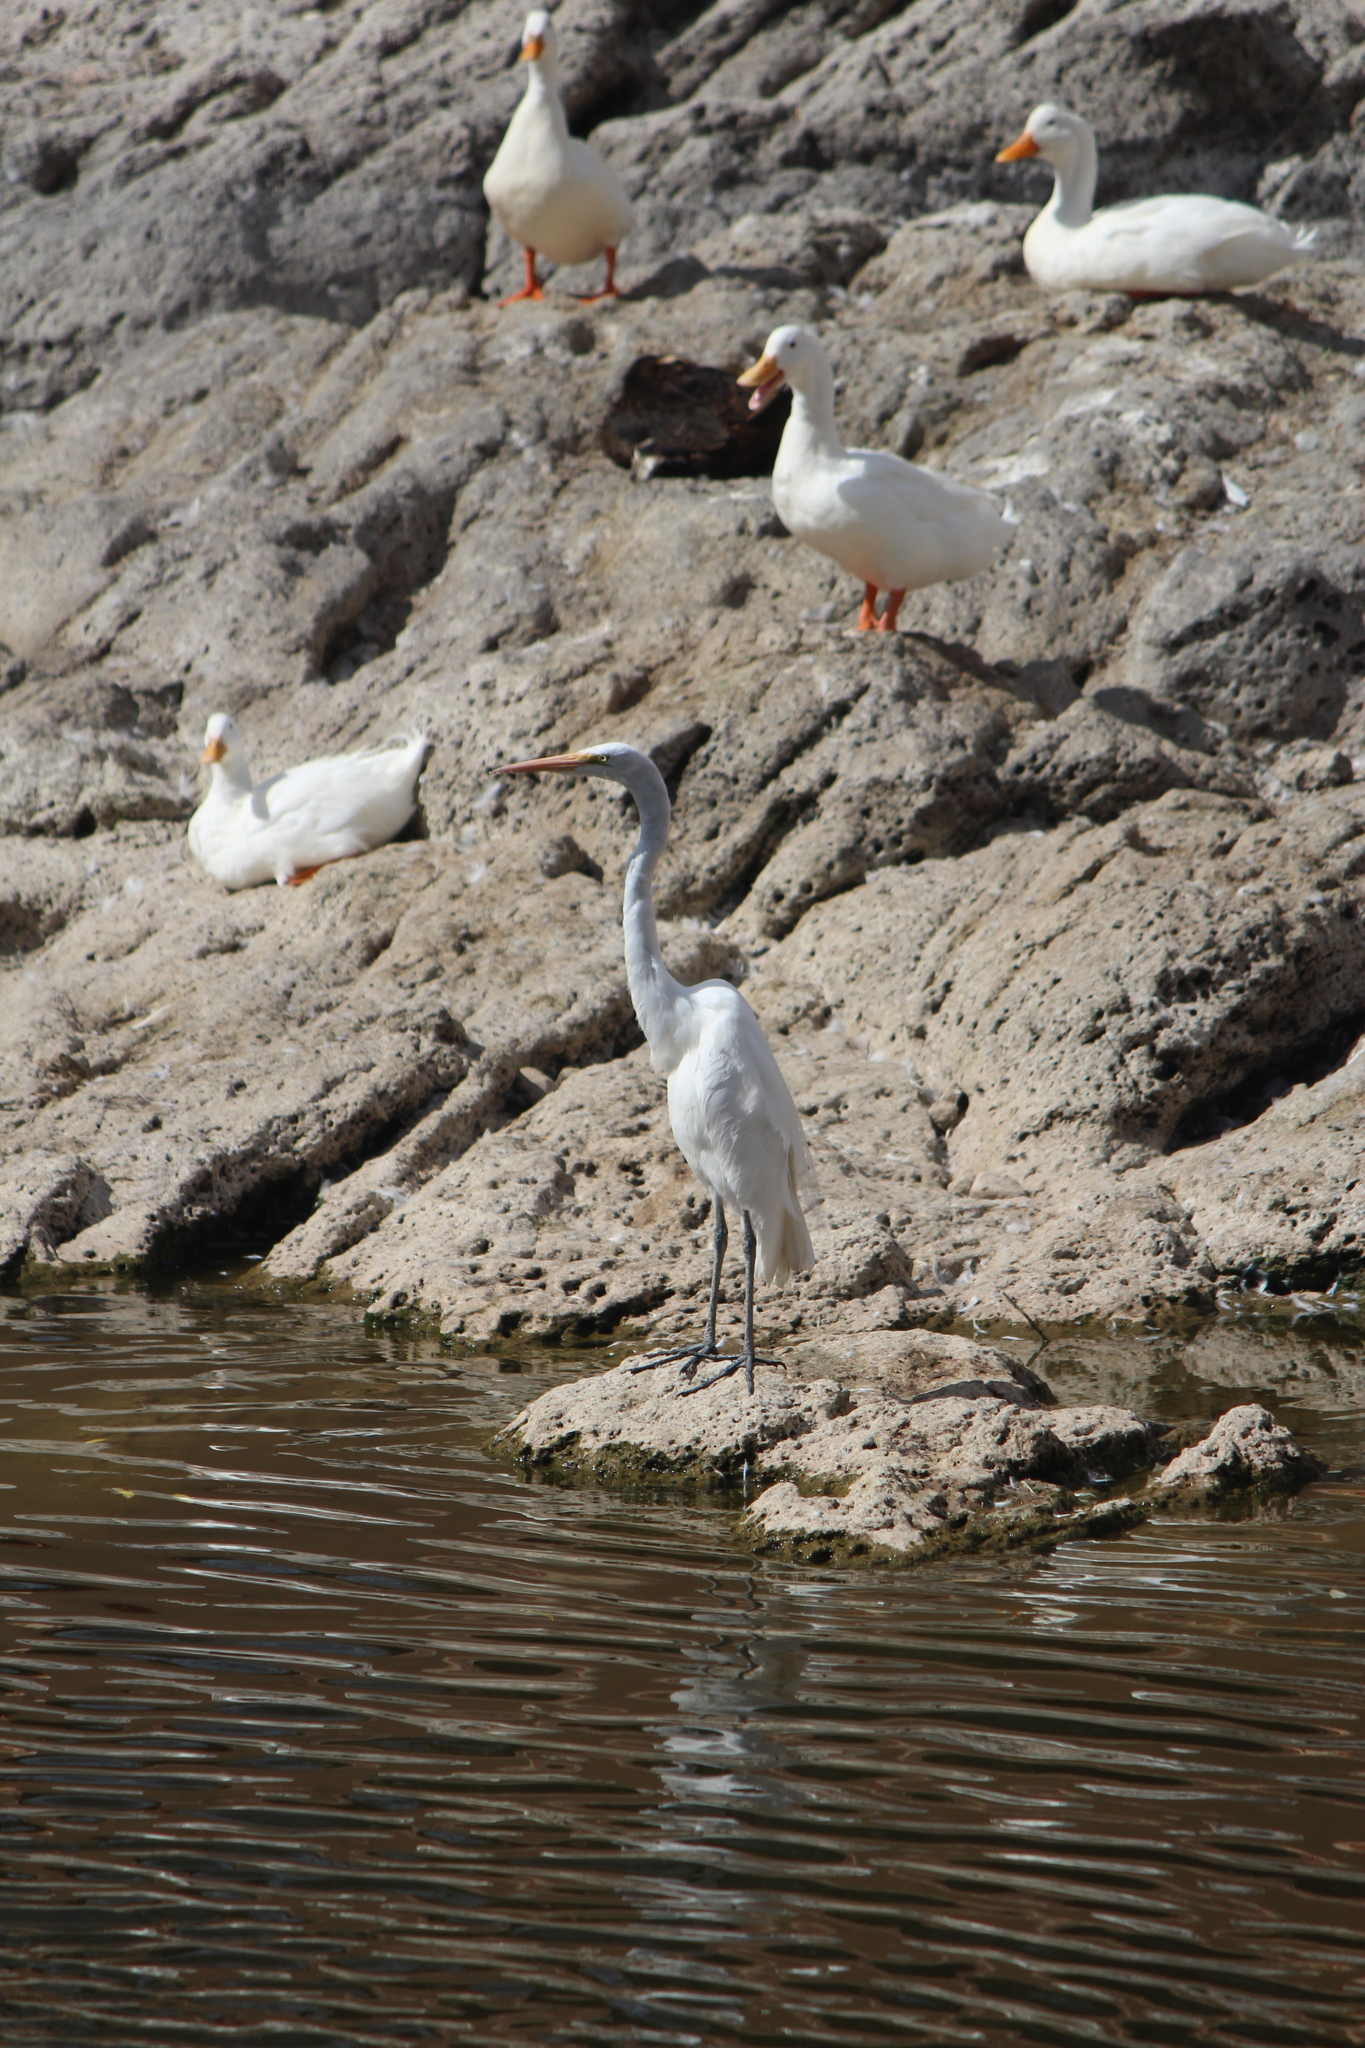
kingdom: Animalia
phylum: Chordata
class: Aves
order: Pelecaniformes
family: Ardeidae
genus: Ardea
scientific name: Ardea alba
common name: Great egret
